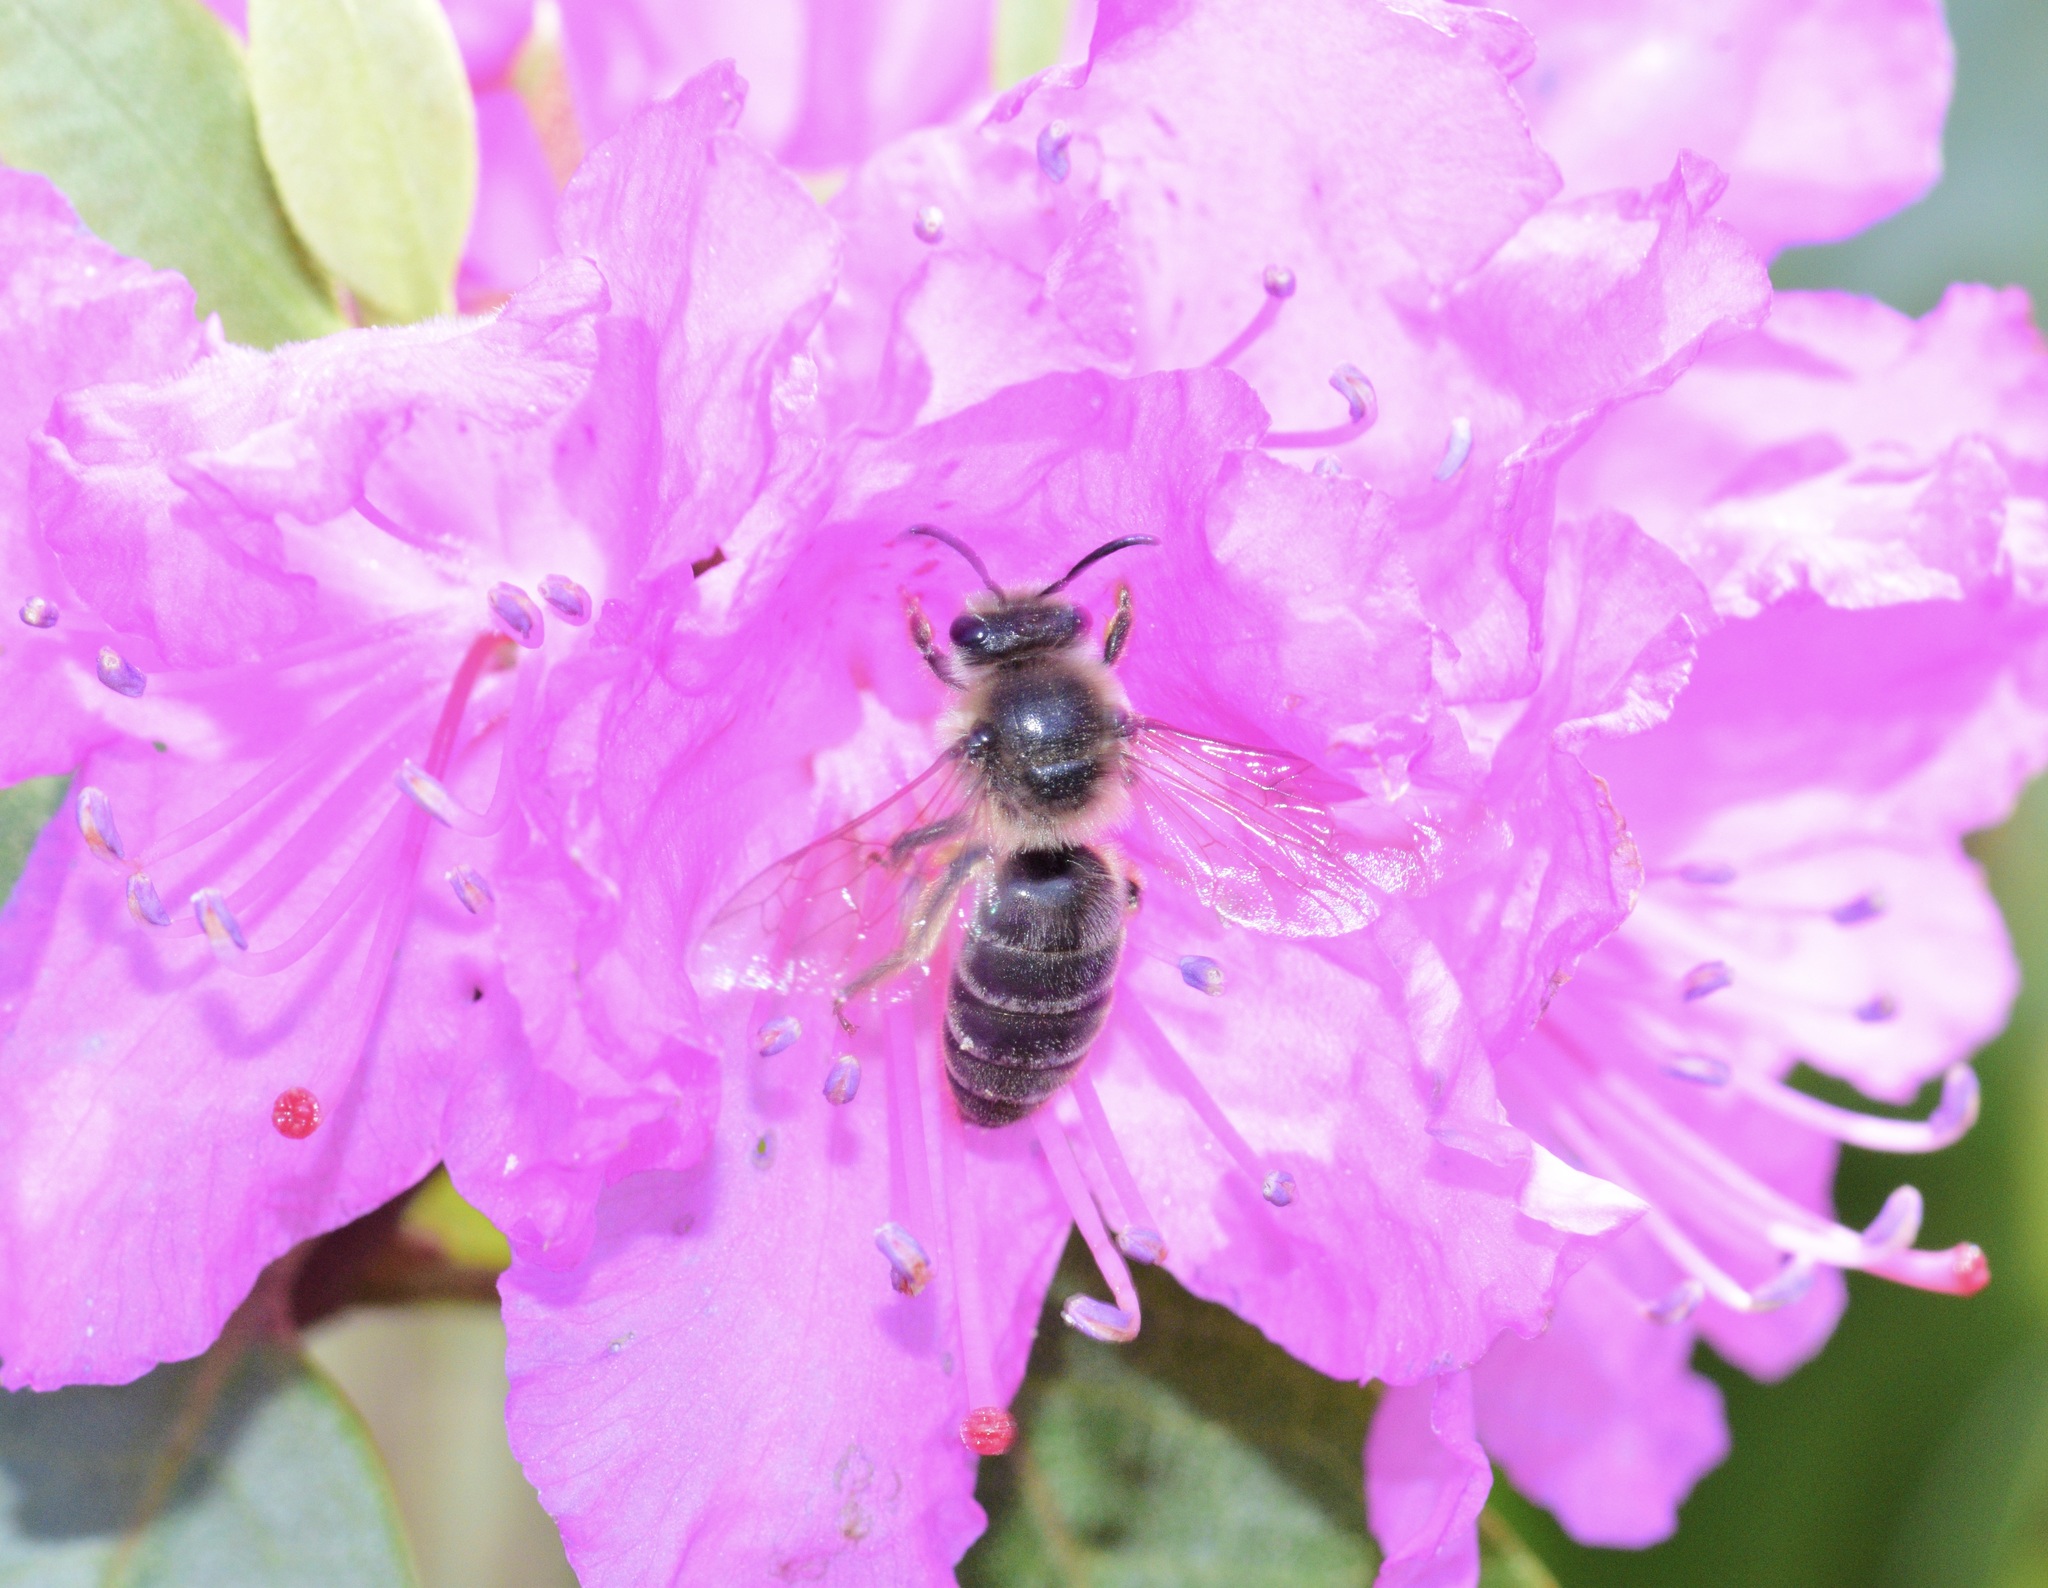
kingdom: Animalia
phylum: Arthropoda
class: Insecta
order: Hymenoptera
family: Colletidae
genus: Colletes
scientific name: Colletes inaequalis
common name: Unequal cellophane bee
